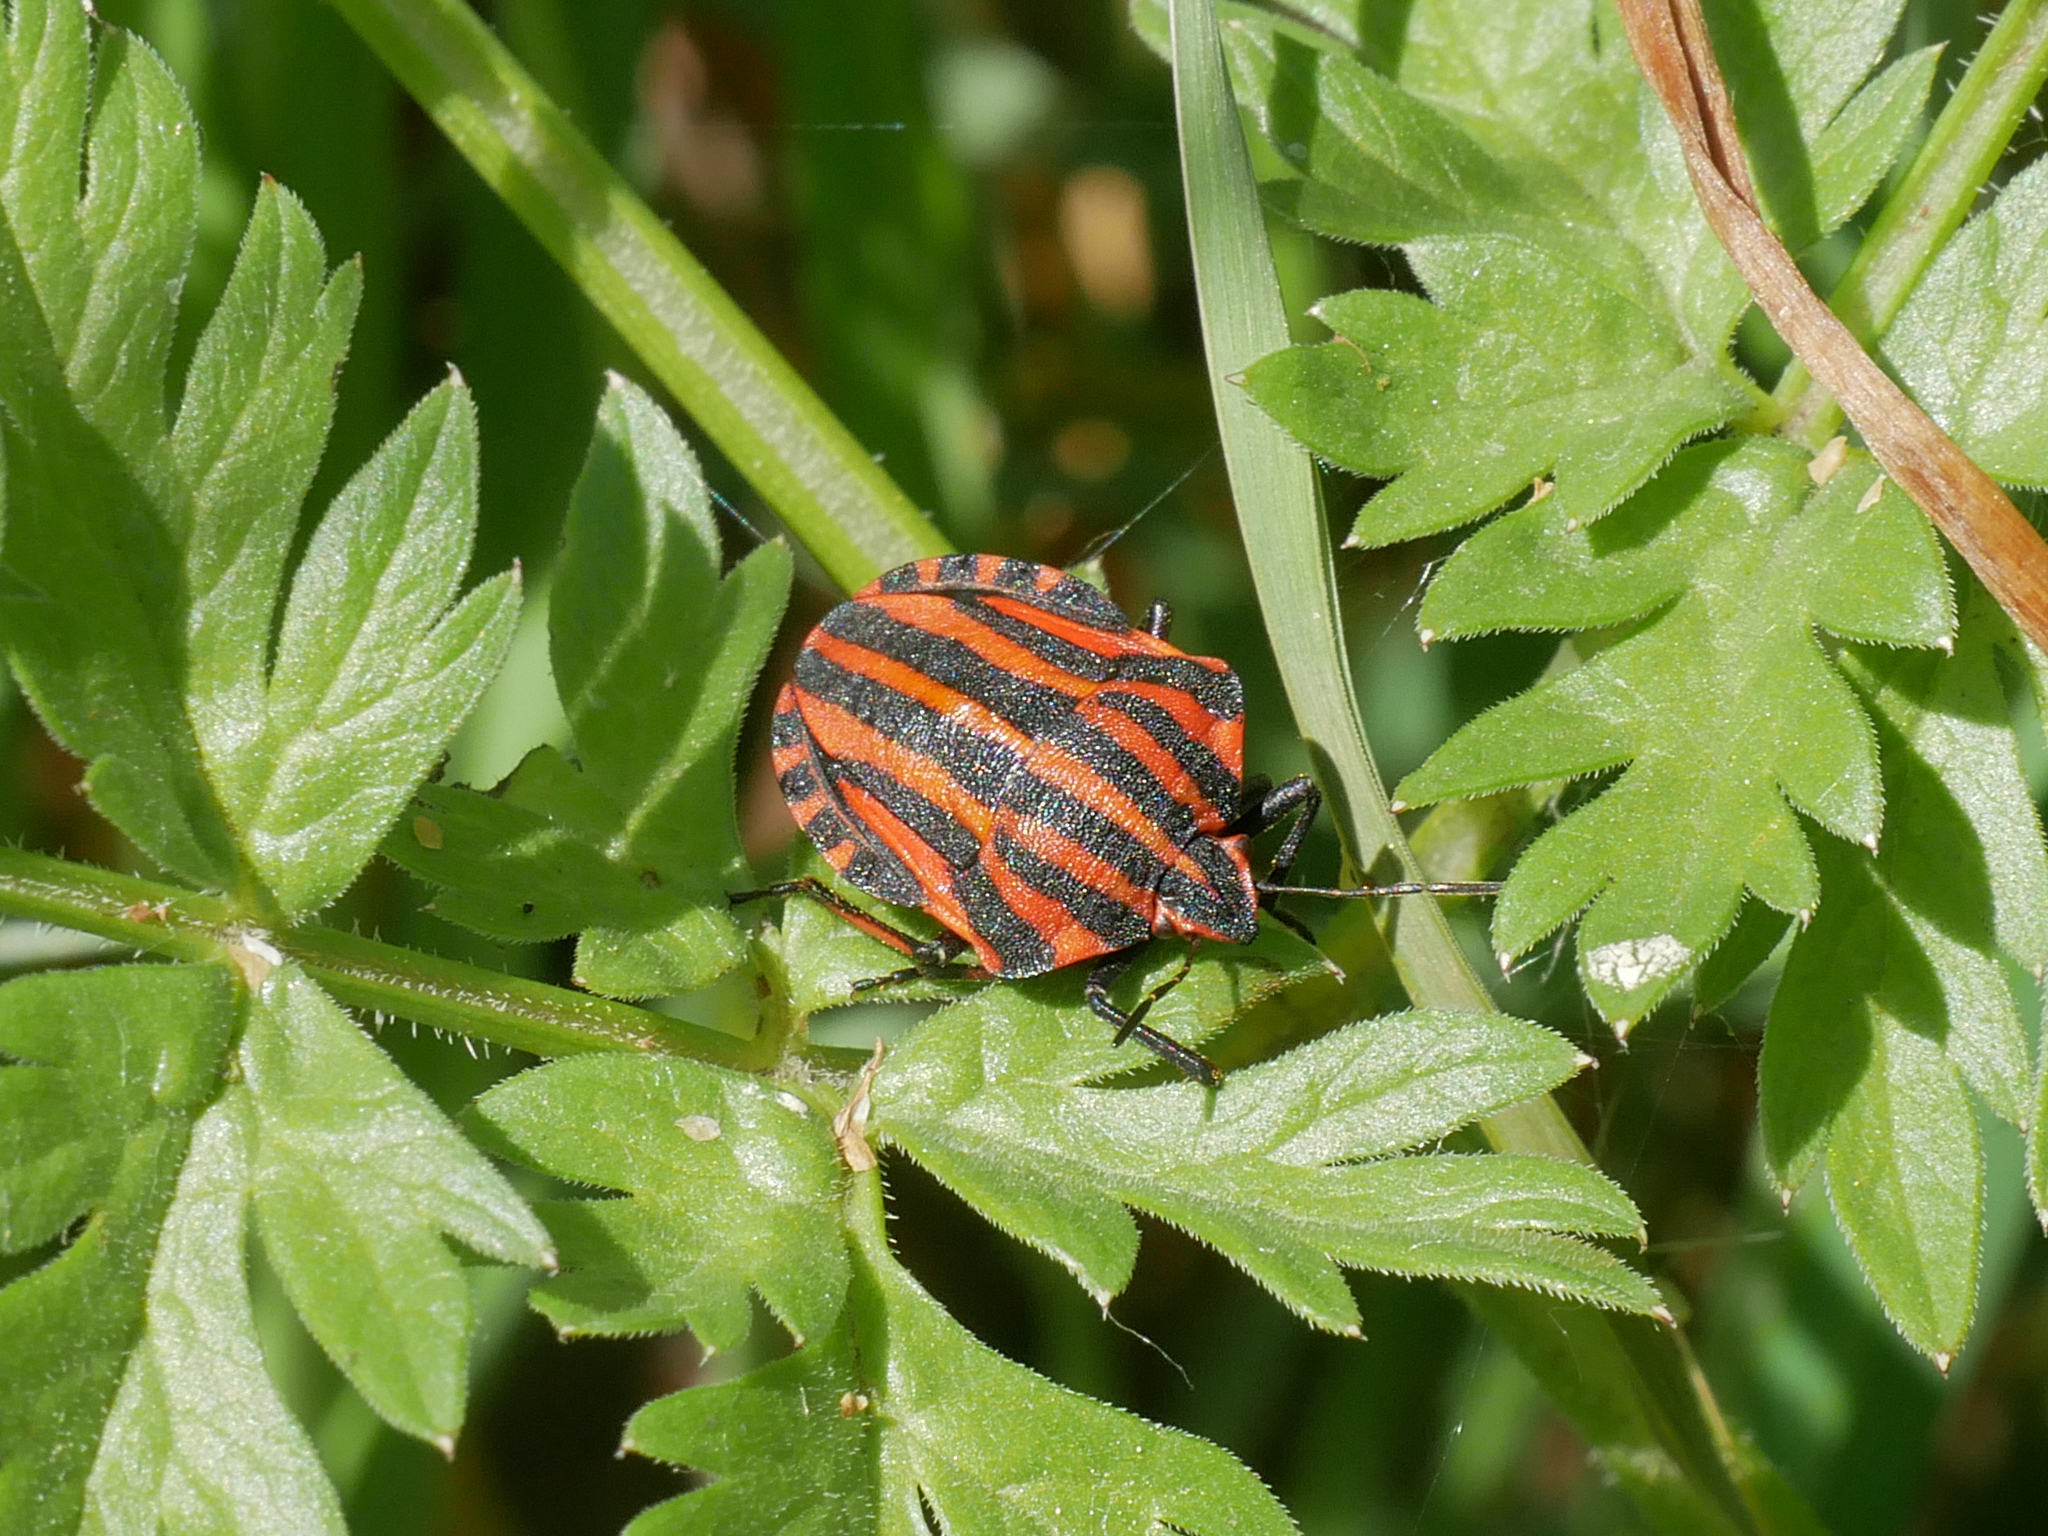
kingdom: Animalia
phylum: Arthropoda
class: Insecta
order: Hemiptera
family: Pentatomidae
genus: Graphosoma
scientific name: Graphosoma italicum
